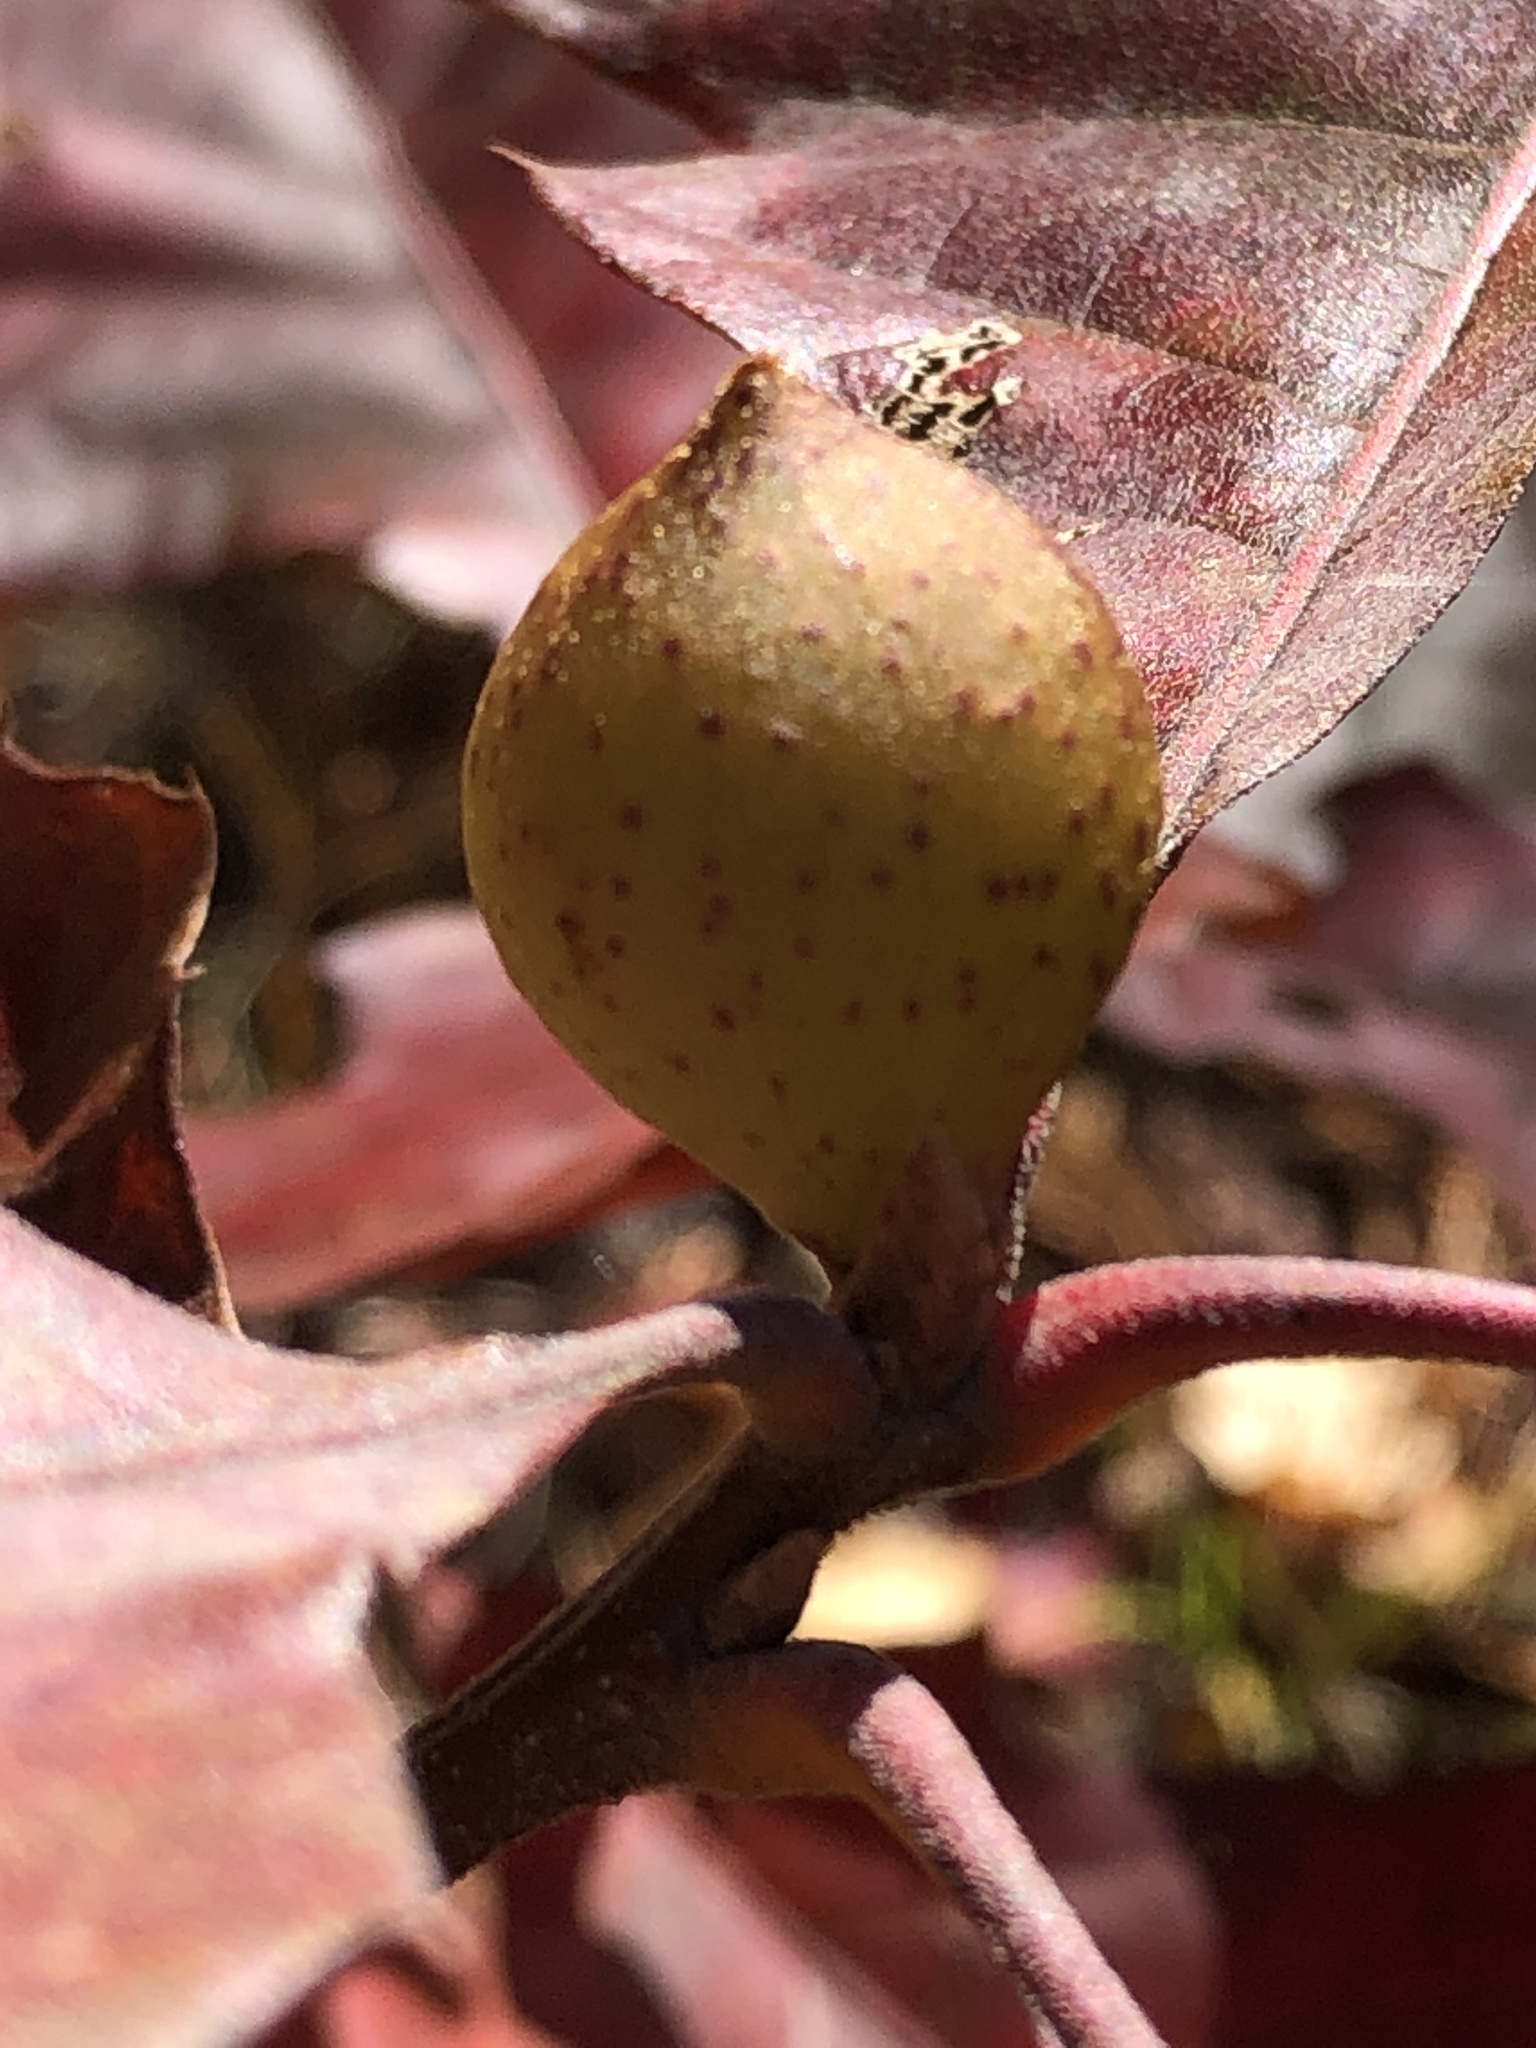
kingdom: Animalia
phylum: Arthropoda
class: Insecta
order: Hymenoptera
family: Cynipidae
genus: Amphibolips
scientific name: Amphibolips
